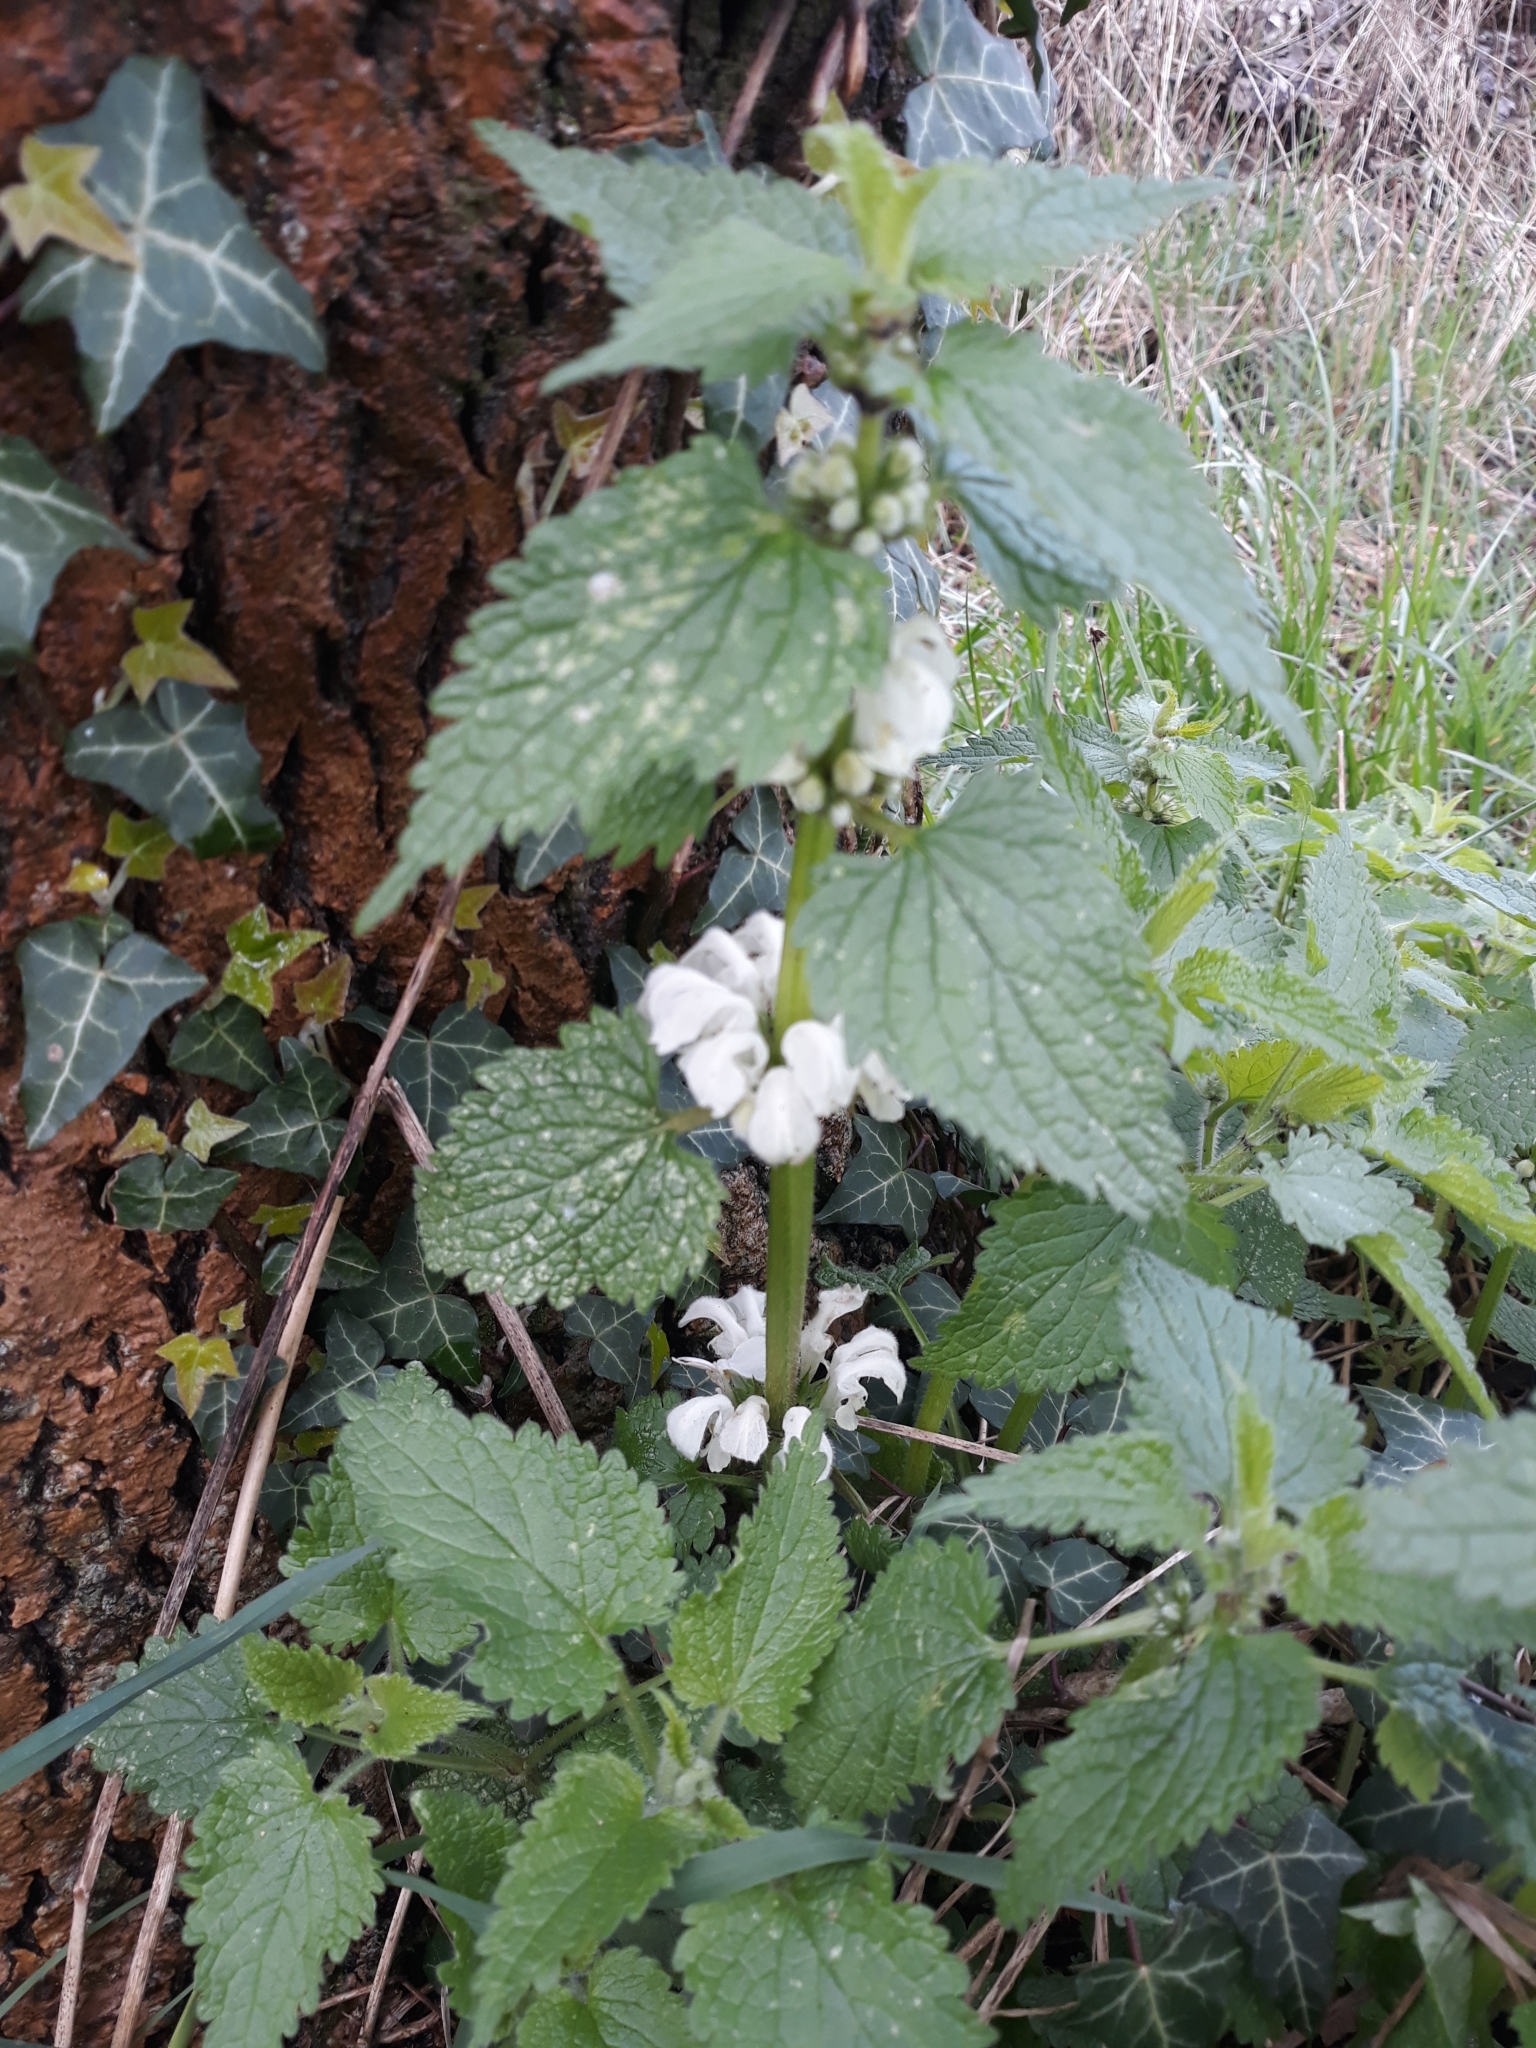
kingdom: Plantae
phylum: Tracheophyta
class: Magnoliopsida
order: Lamiales
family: Lamiaceae
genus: Lamium
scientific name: Lamium album
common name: White dead-nettle
